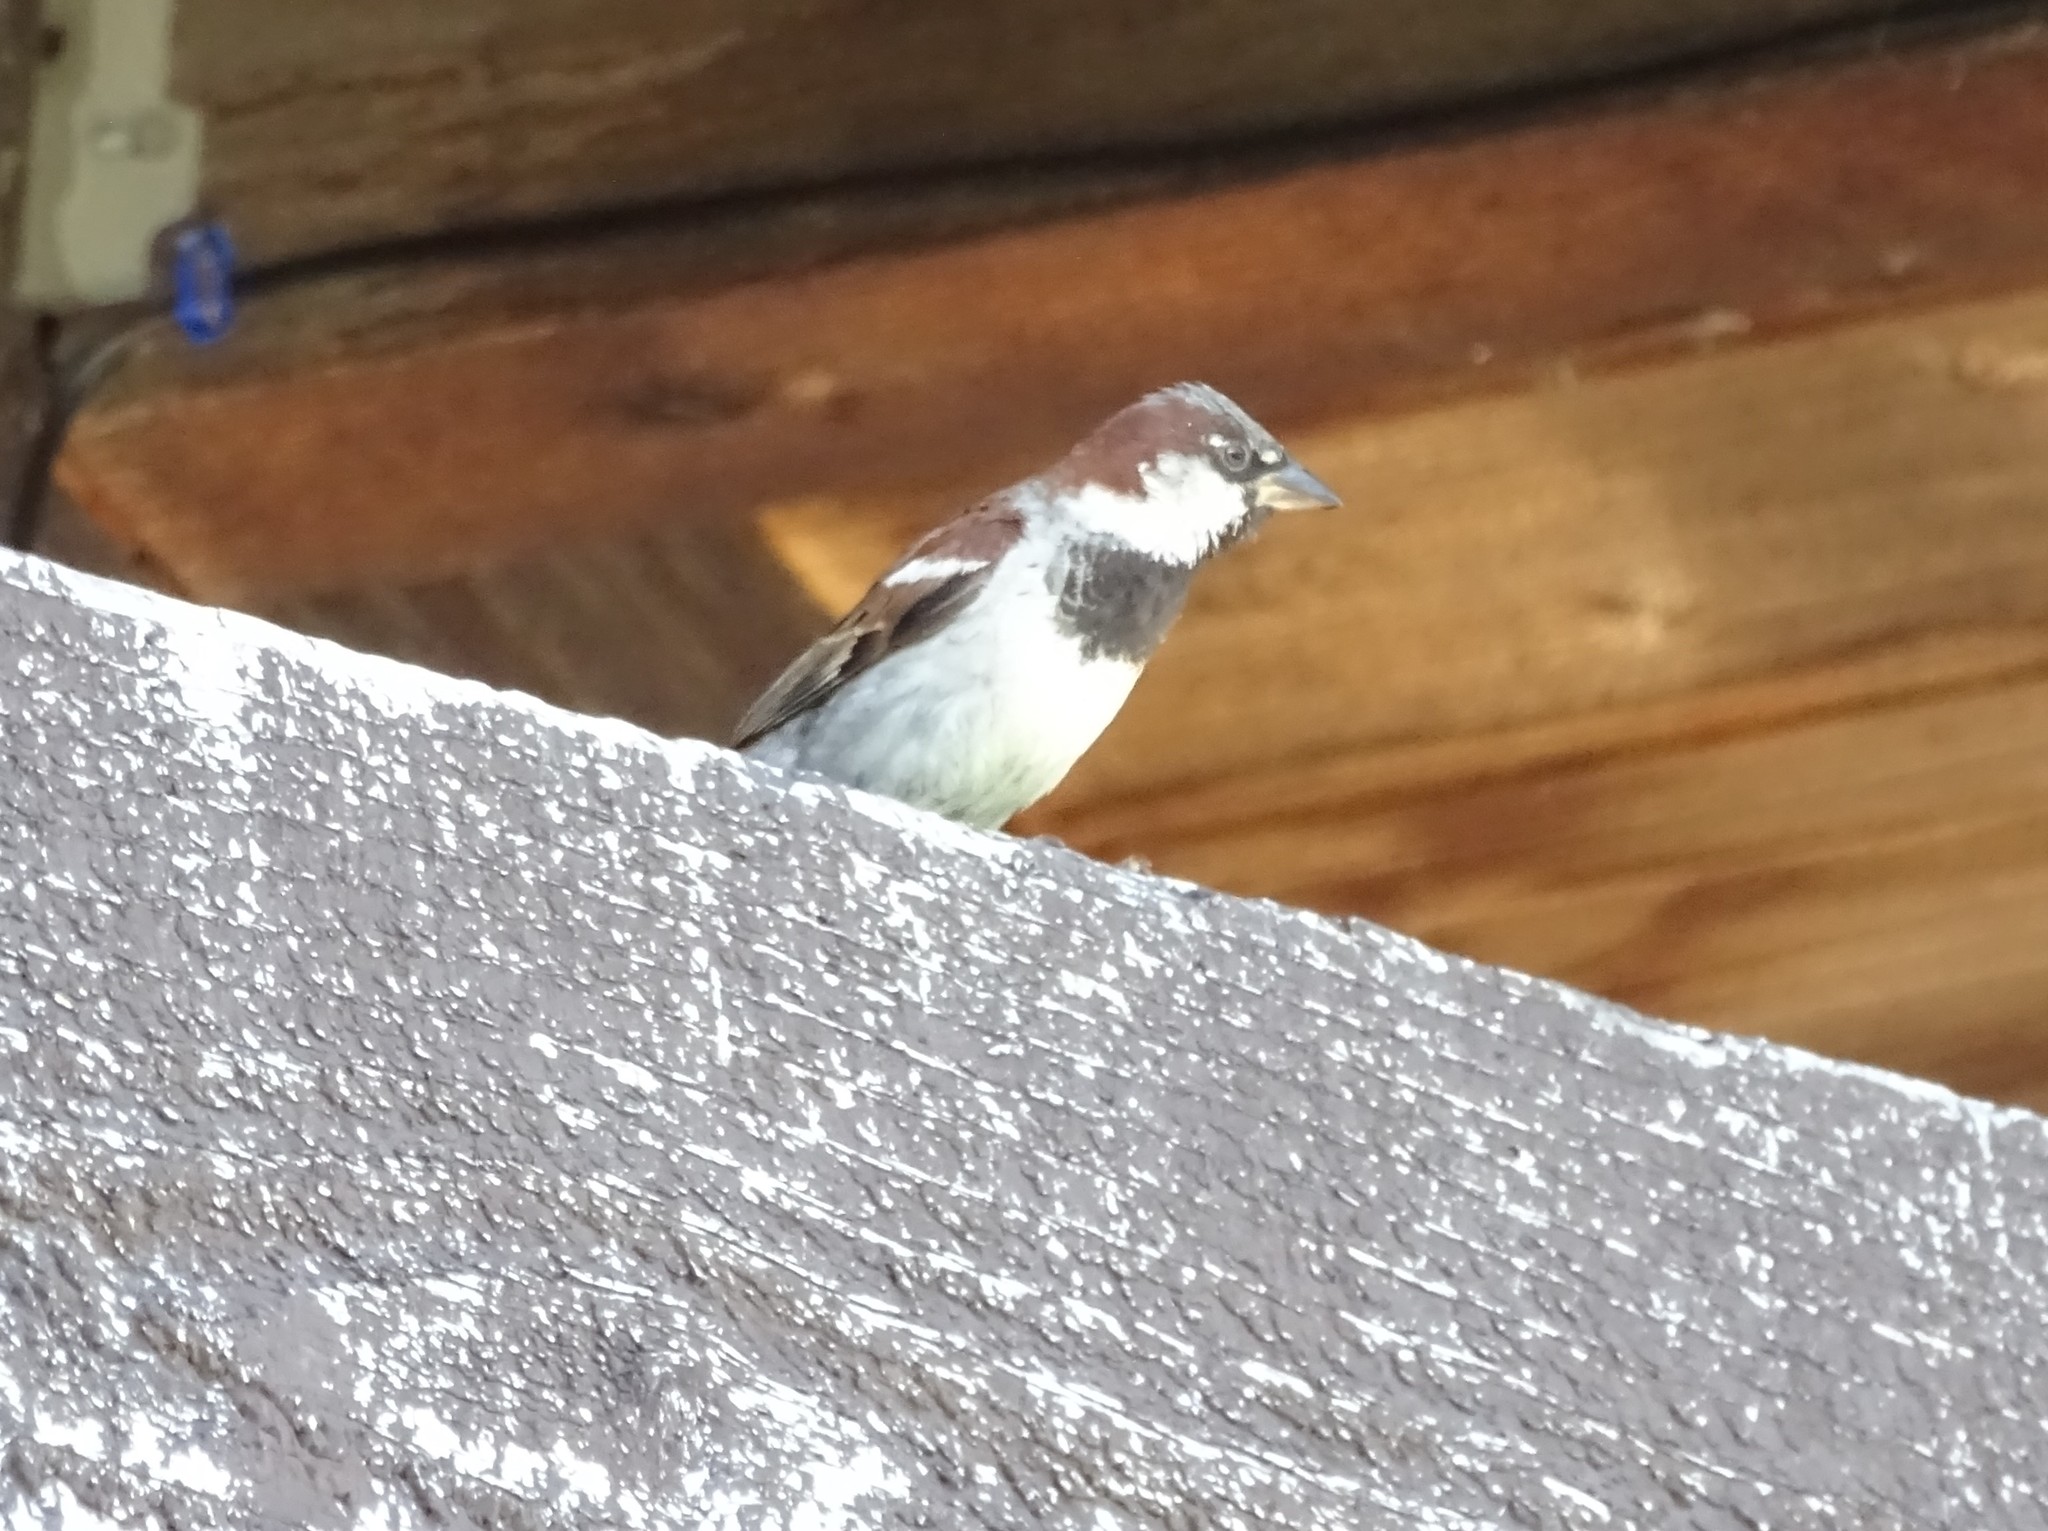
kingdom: Animalia
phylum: Chordata
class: Aves
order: Passeriformes
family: Passeridae
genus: Passer
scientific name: Passer domesticus
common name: House sparrow
